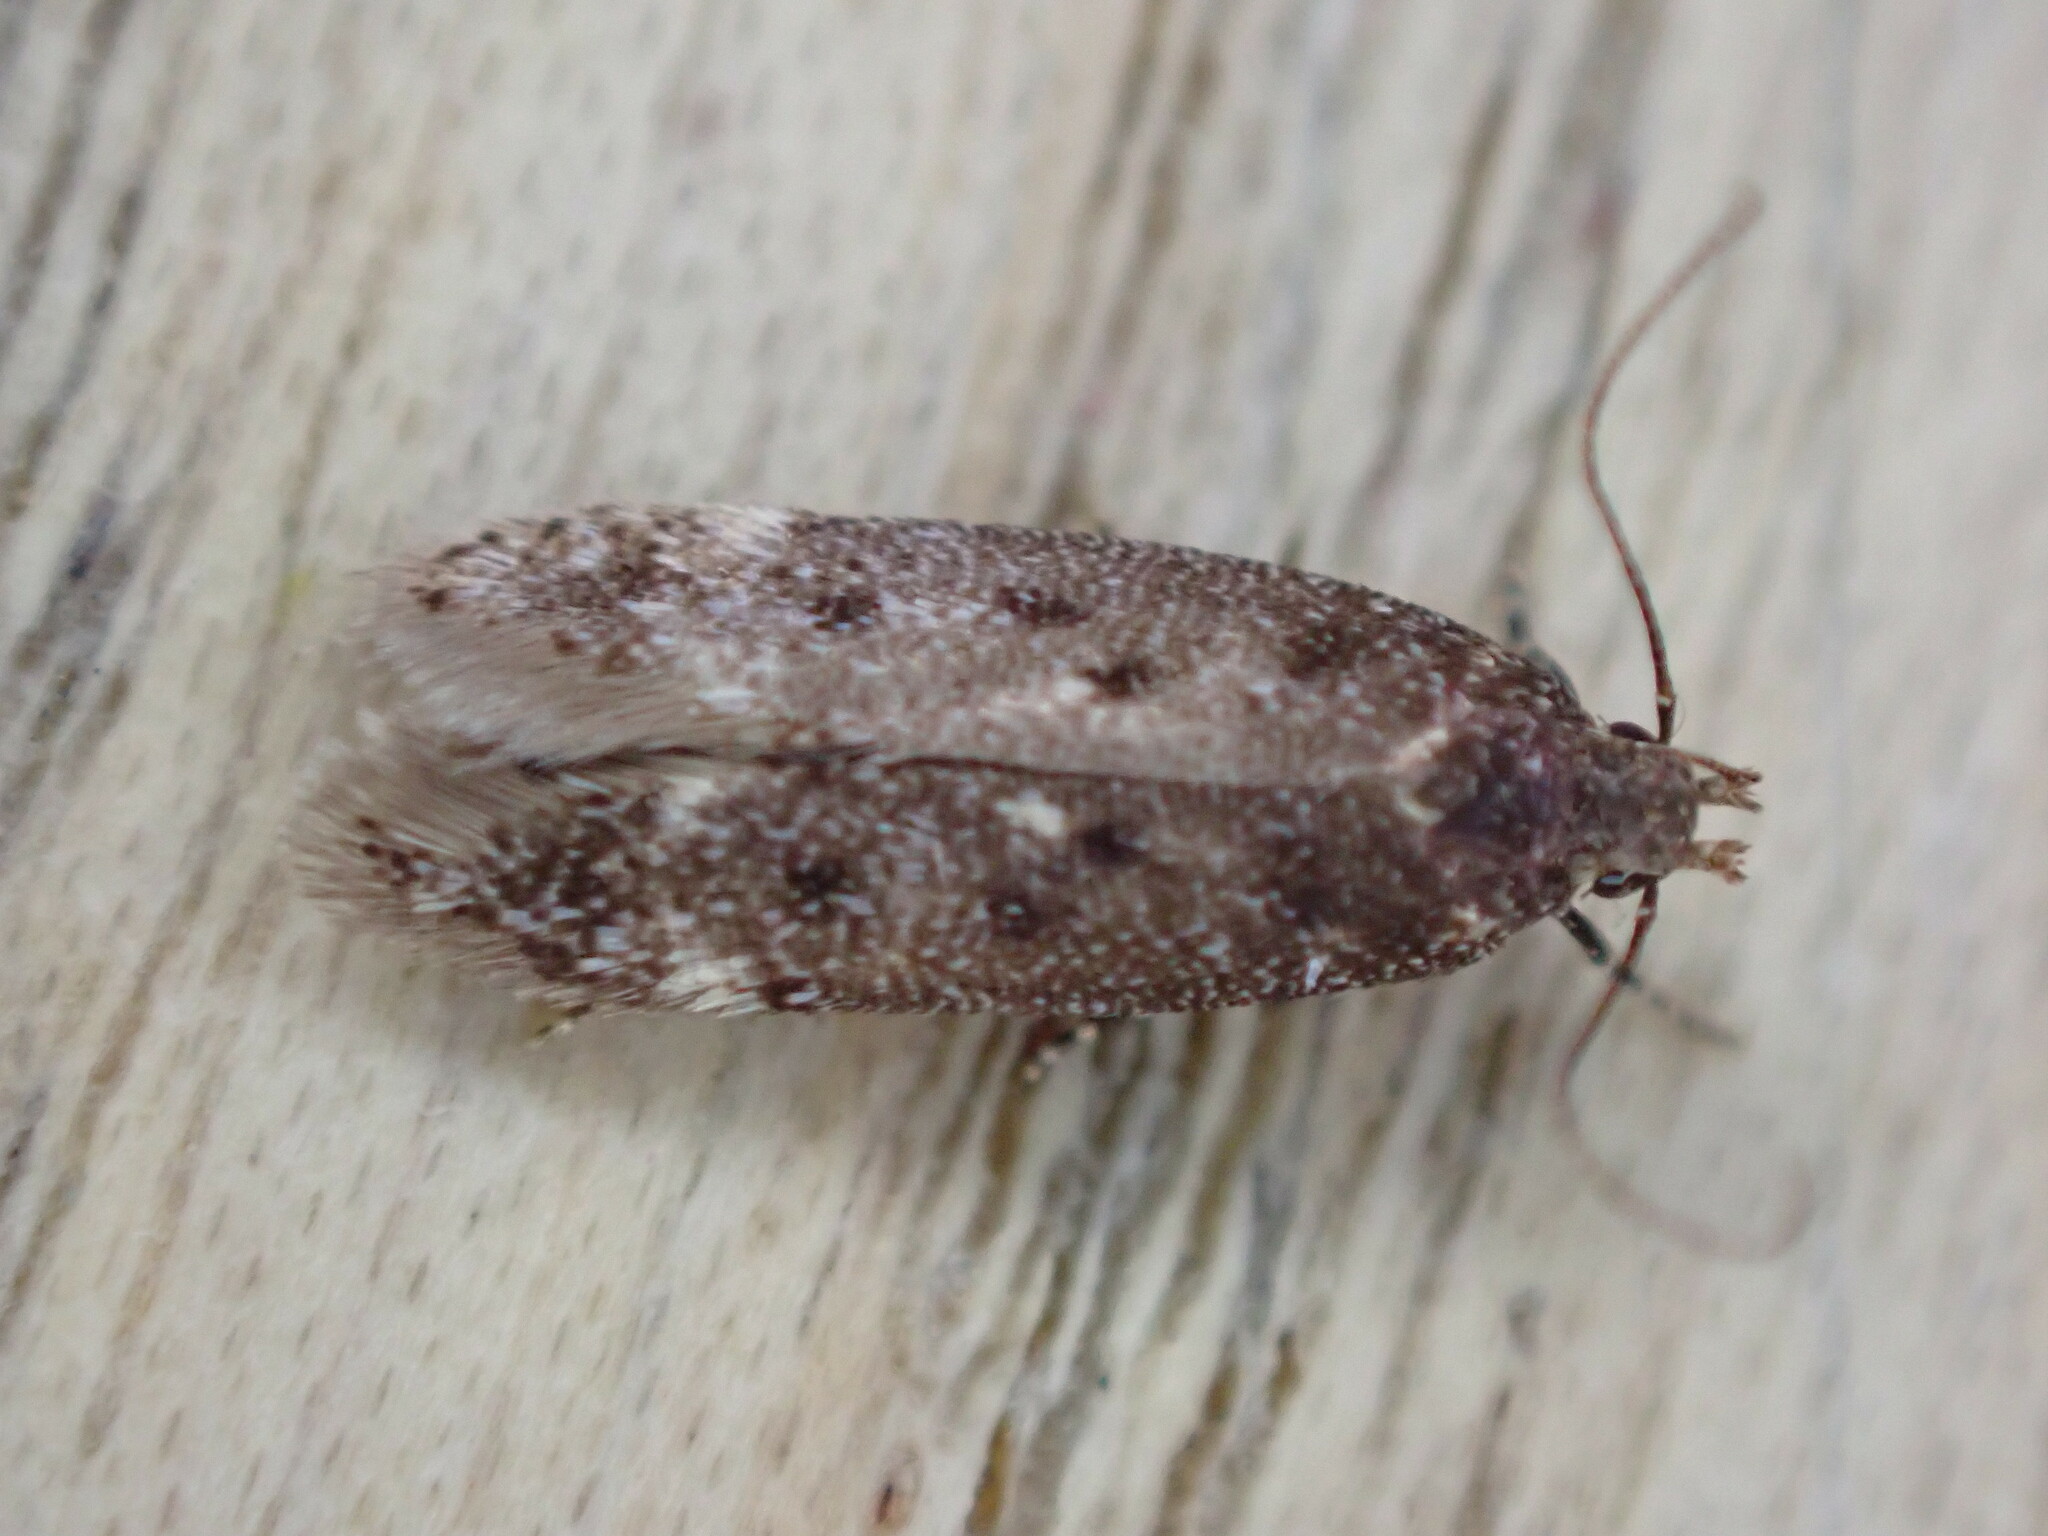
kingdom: Animalia
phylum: Arthropoda
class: Insecta
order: Lepidoptera
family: Gelechiidae
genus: Bryotropha
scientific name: Bryotropha affinis
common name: Dark groundling
